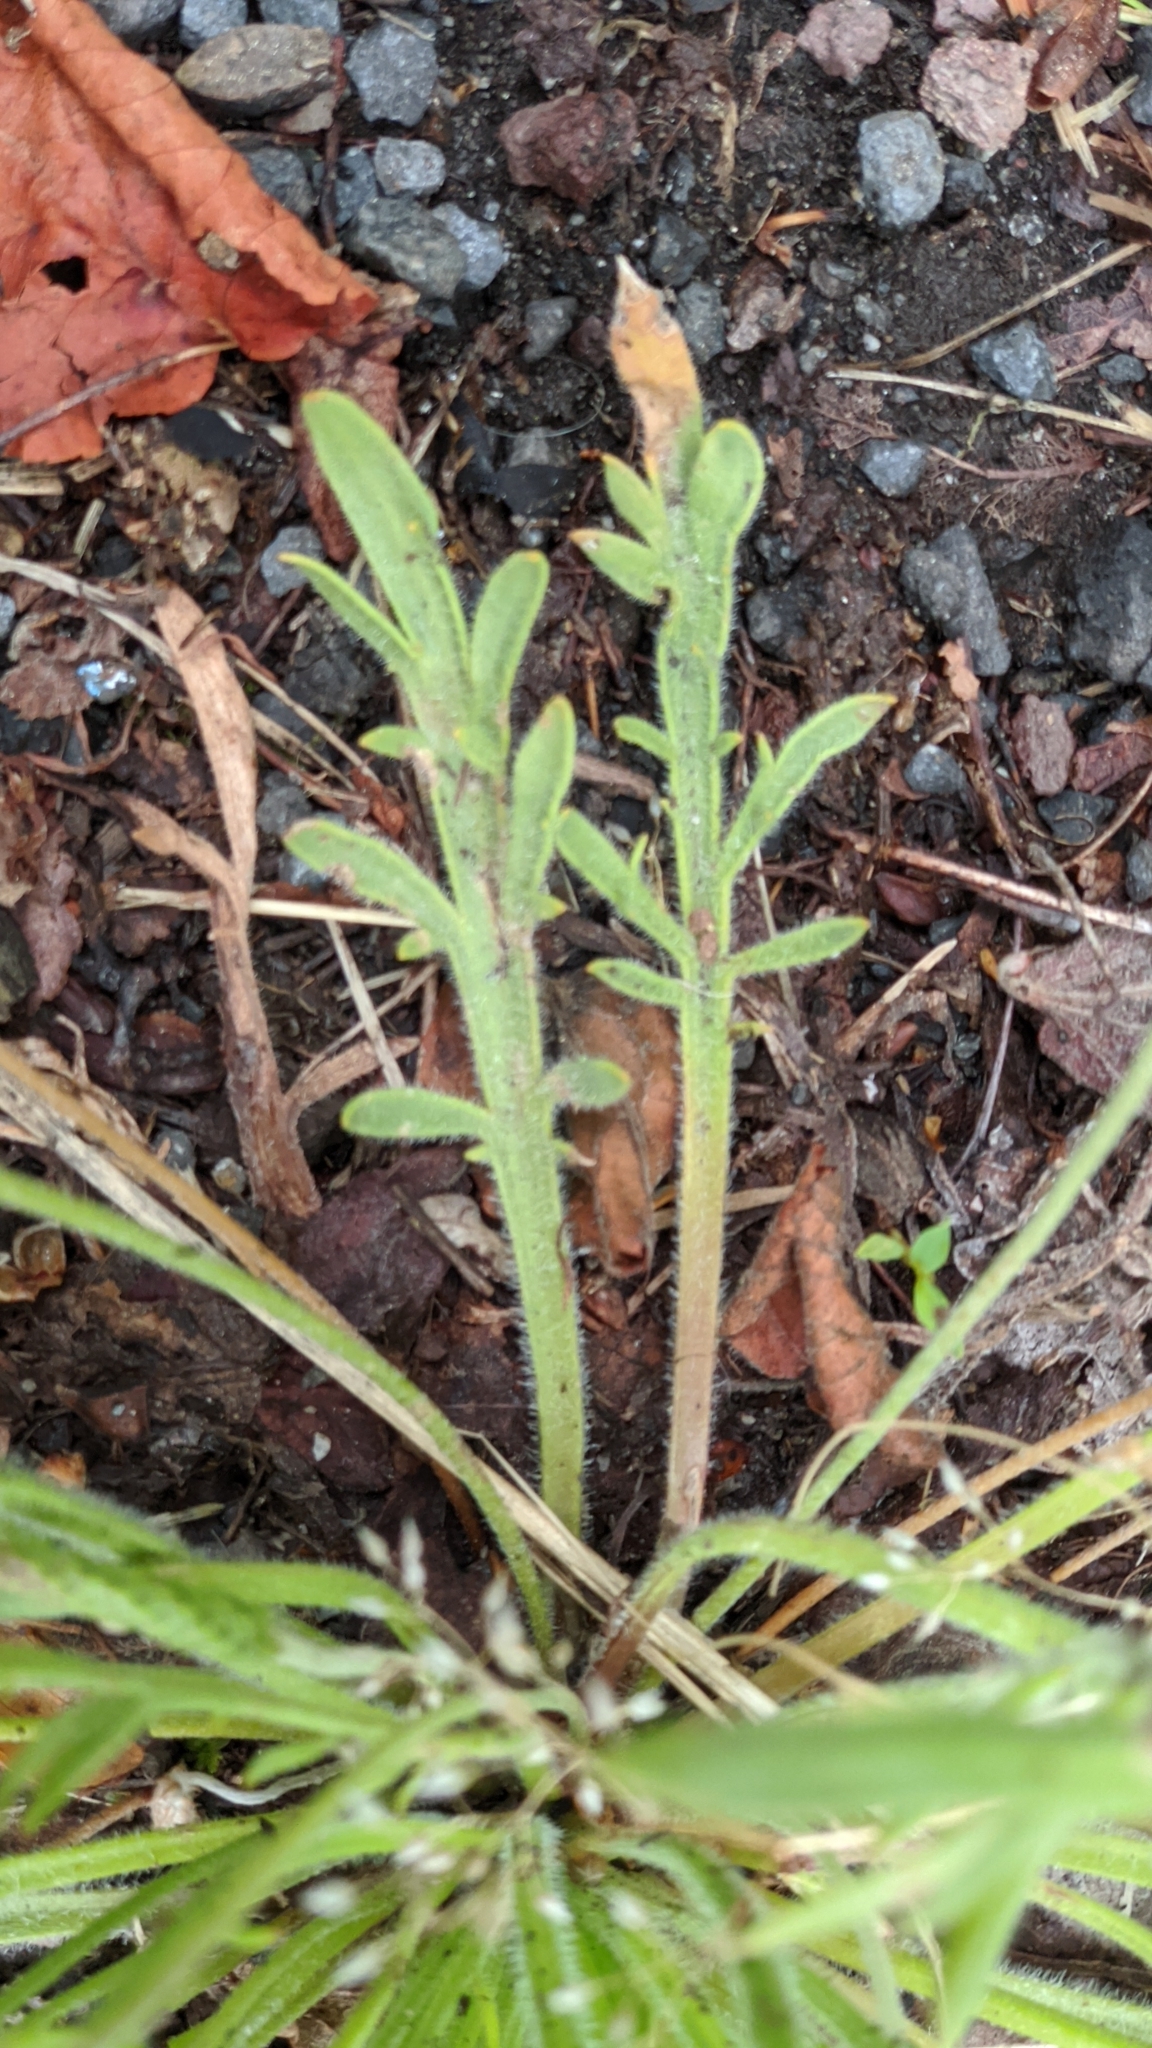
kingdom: Plantae
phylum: Tracheophyta
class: Magnoliopsida
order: Lamiales
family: Plantaginaceae
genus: Plantago
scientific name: Plantago coronopus
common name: Buck's-horn plantain
